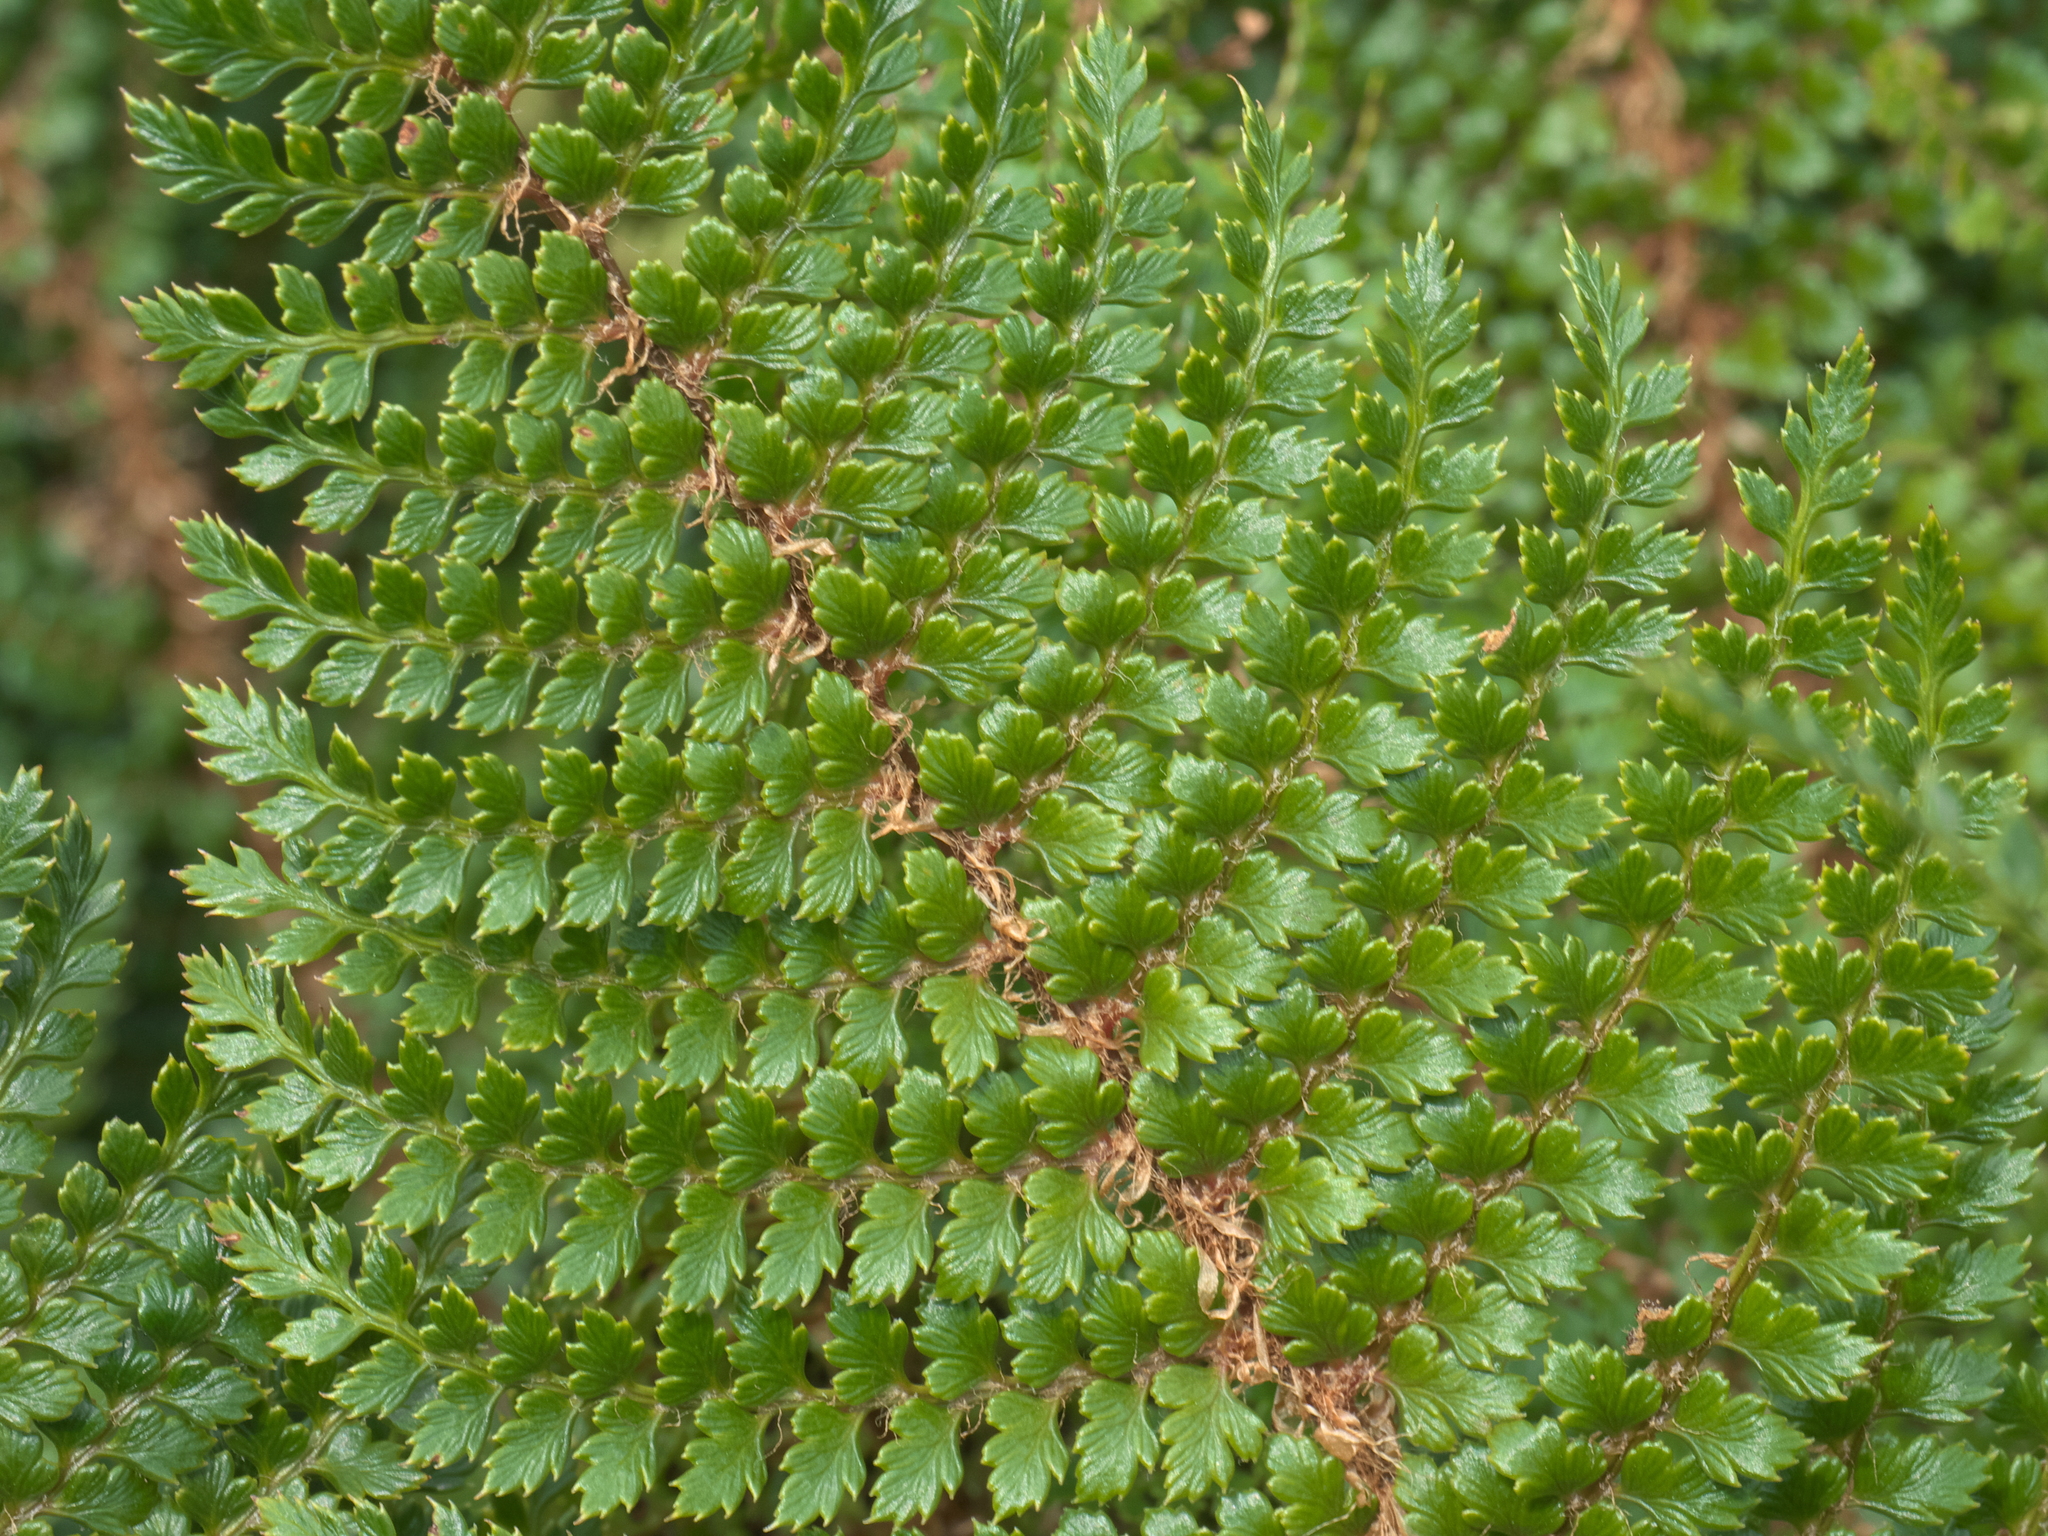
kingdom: Plantae
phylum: Tracheophyta
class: Polypodiopsida
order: Polypodiales
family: Dryopteridaceae
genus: Polystichum
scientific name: Polystichum vestitum
